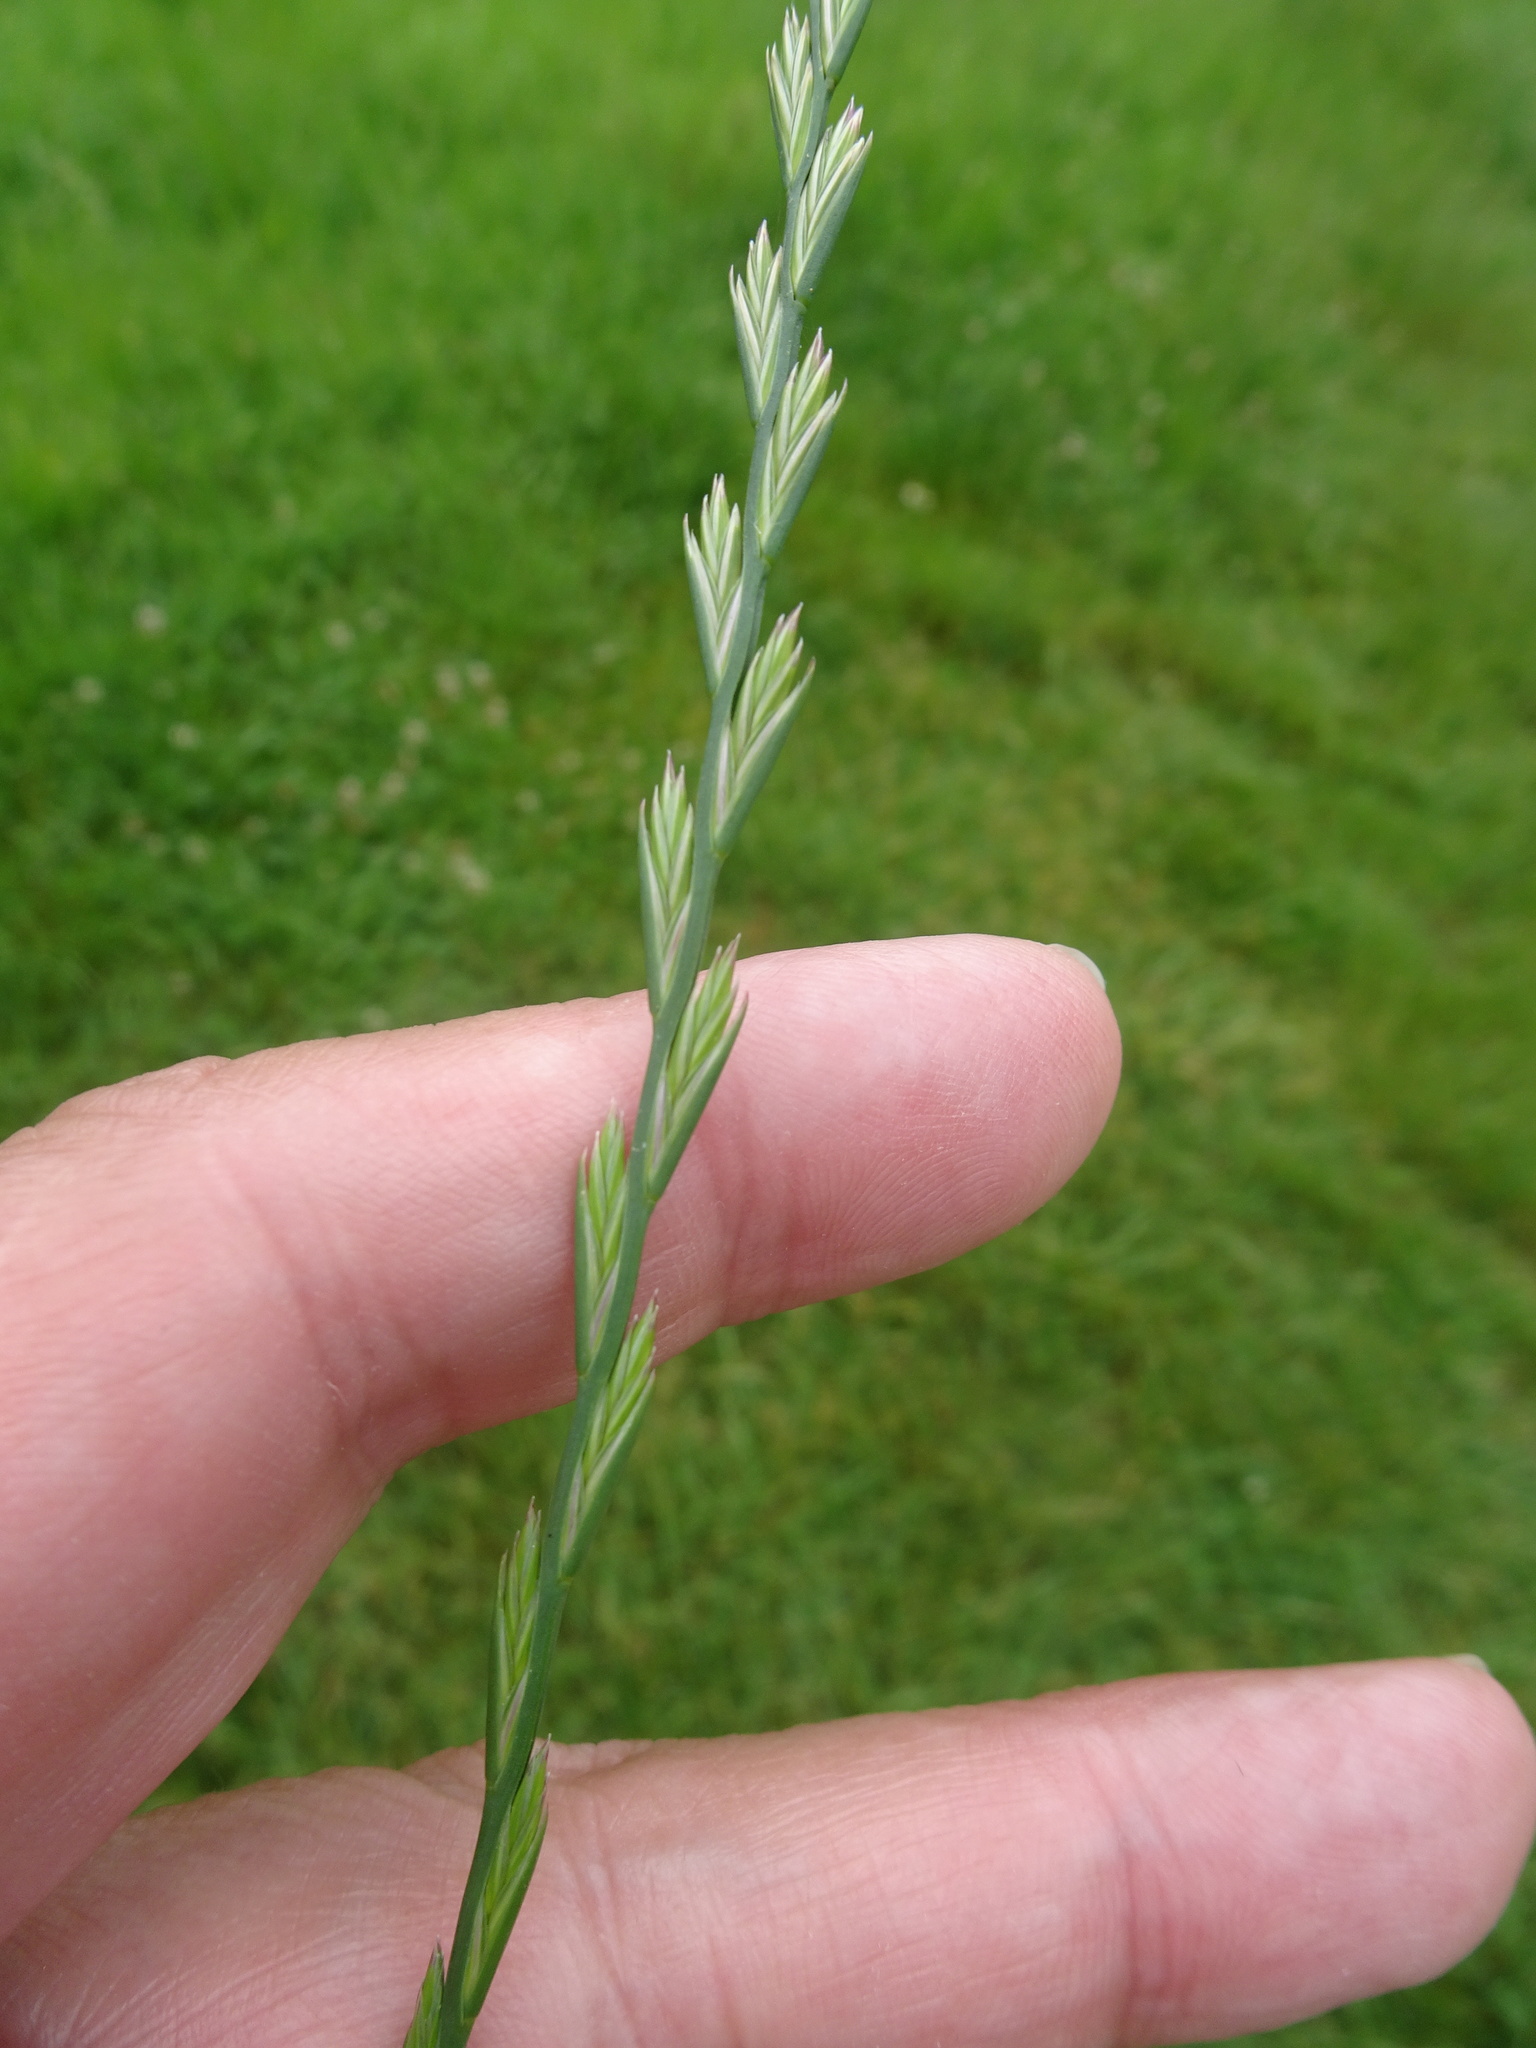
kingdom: Plantae
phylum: Tracheophyta
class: Liliopsida
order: Poales
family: Poaceae
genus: Lolium
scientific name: Lolium perenne
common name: Perennial ryegrass
